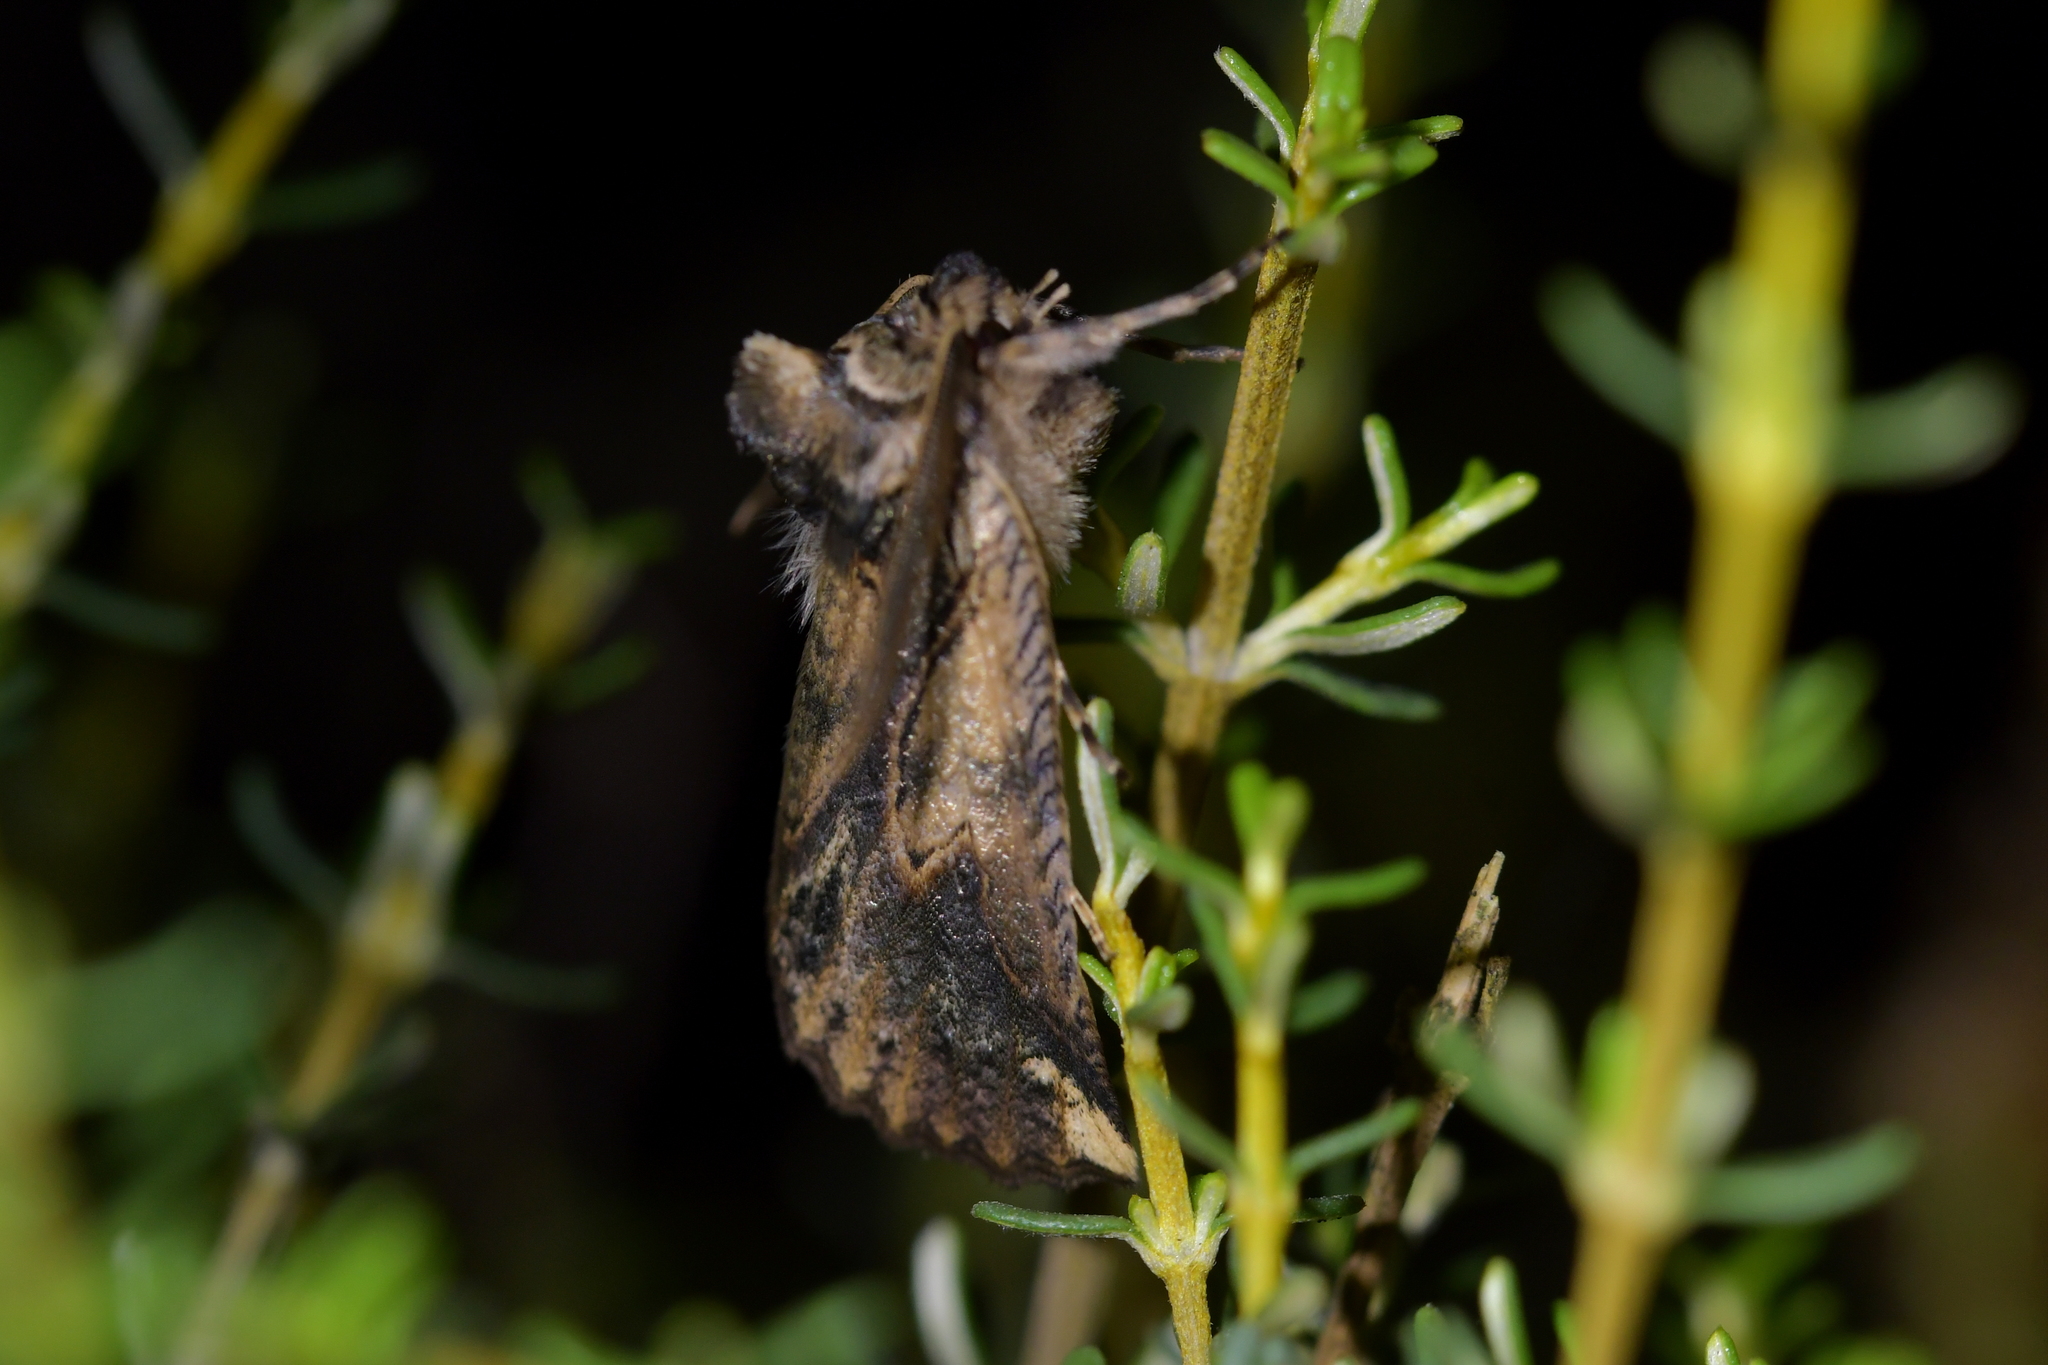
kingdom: Animalia
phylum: Arthropoda
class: Insecta
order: Lepidoptera
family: Geometridae
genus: Declana
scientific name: Declana
